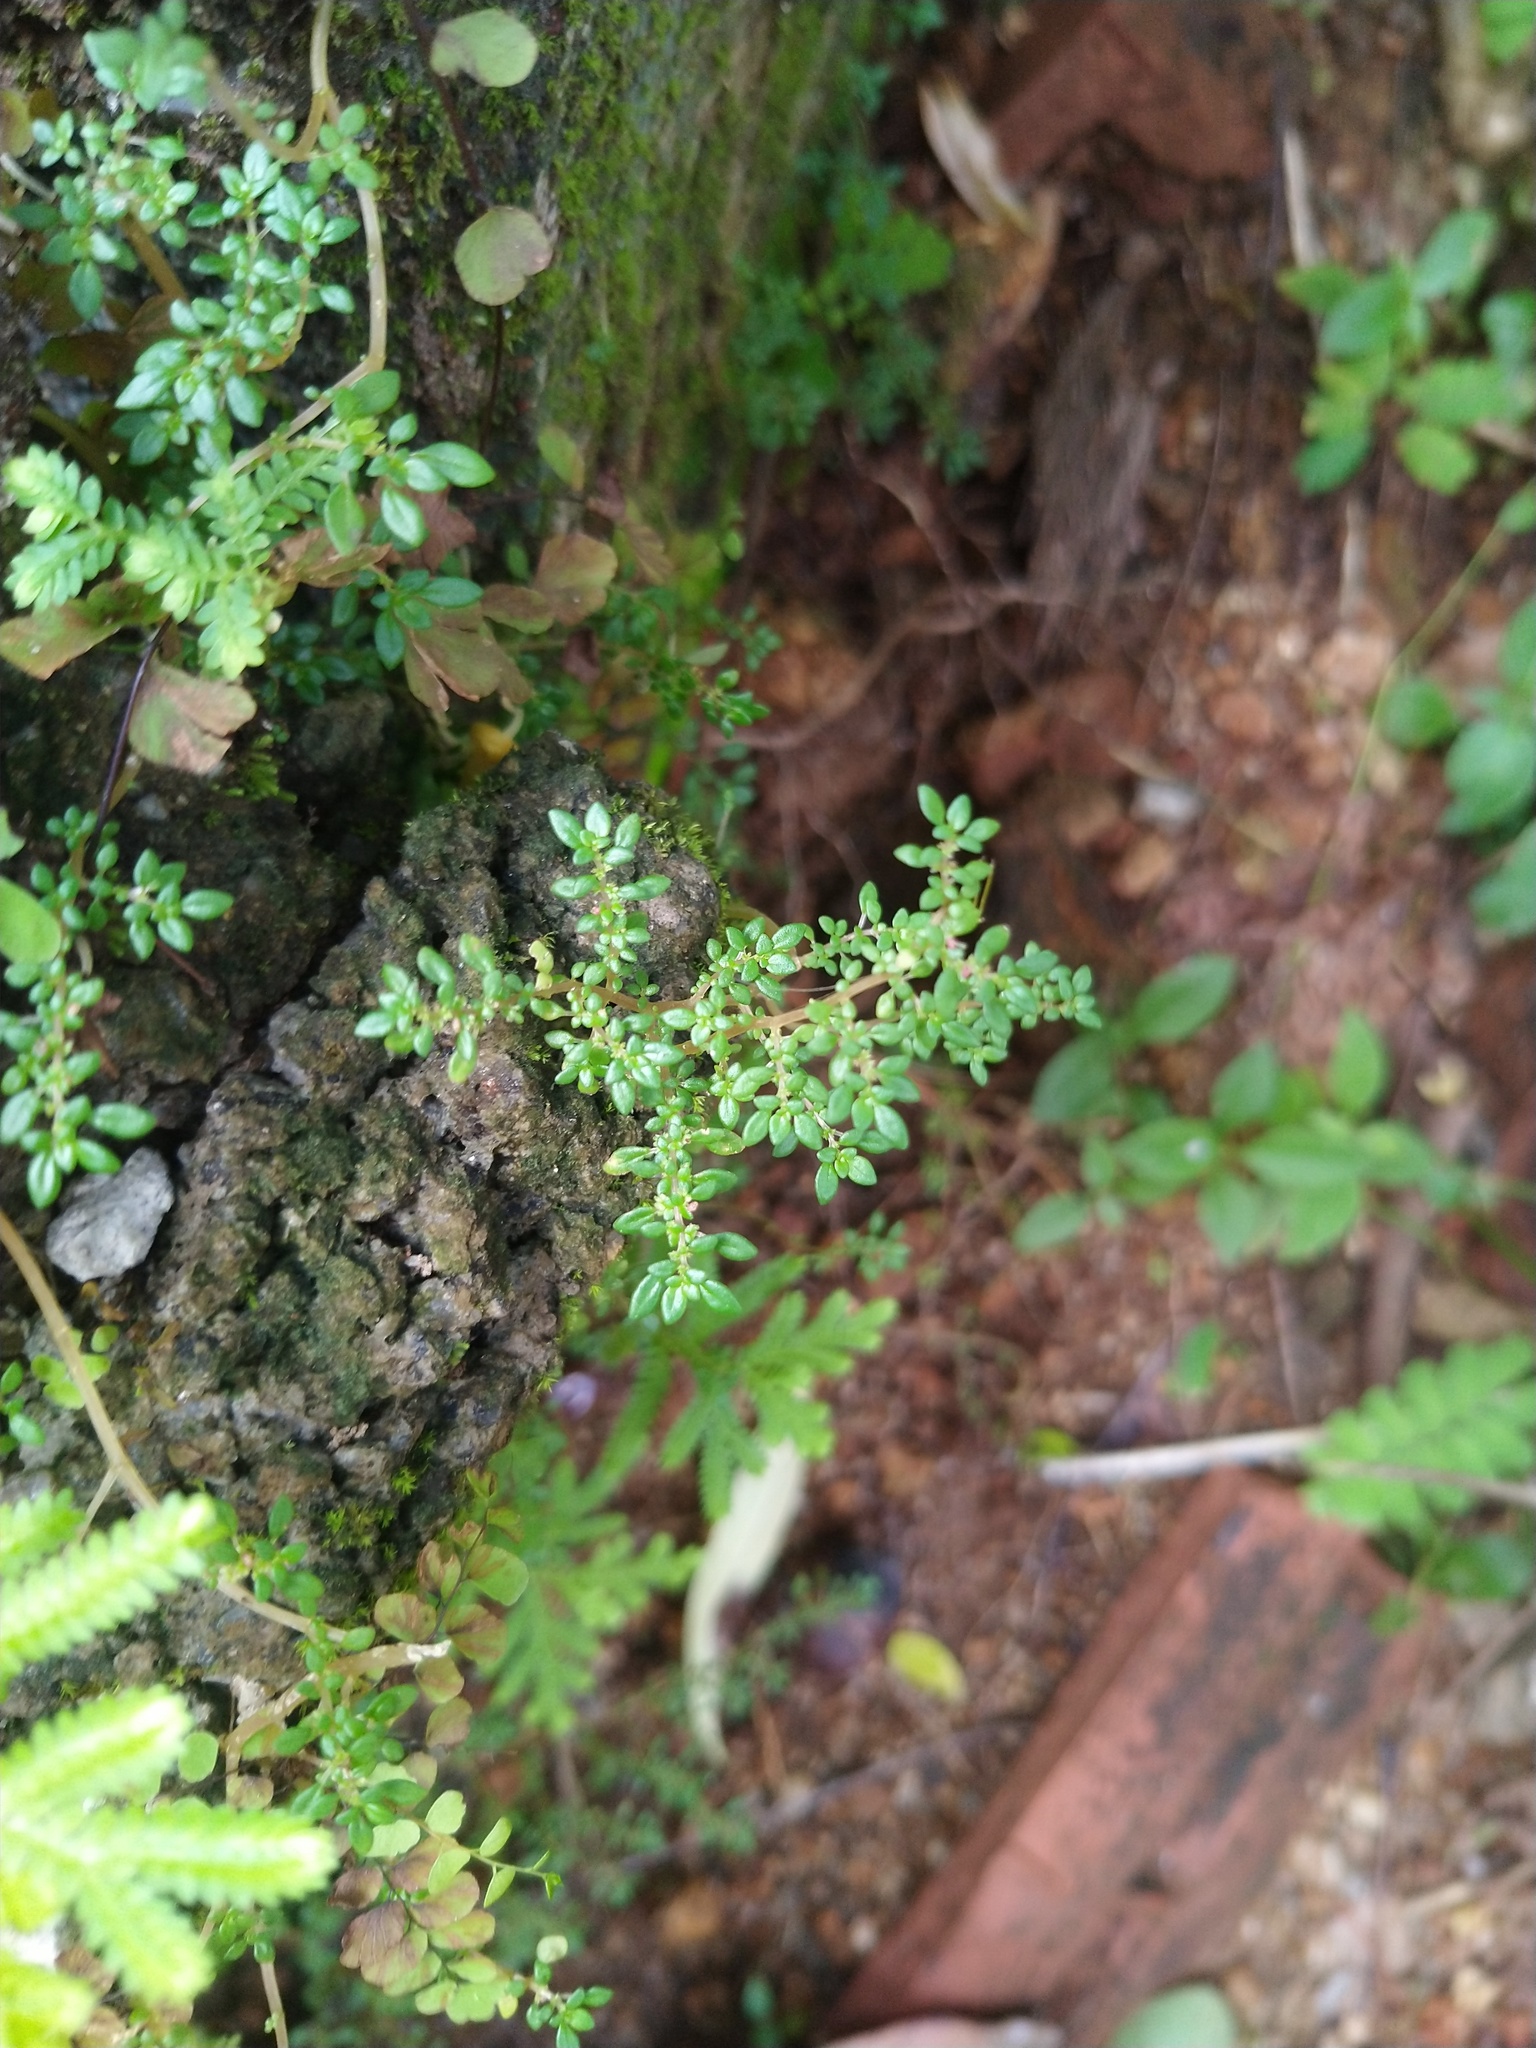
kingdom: Plantae
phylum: Tracheophyta
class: Magnoliopsida
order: Rosales
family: Urticaceae
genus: Pilea
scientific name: Pilea microphylla
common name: Artillery-plant
